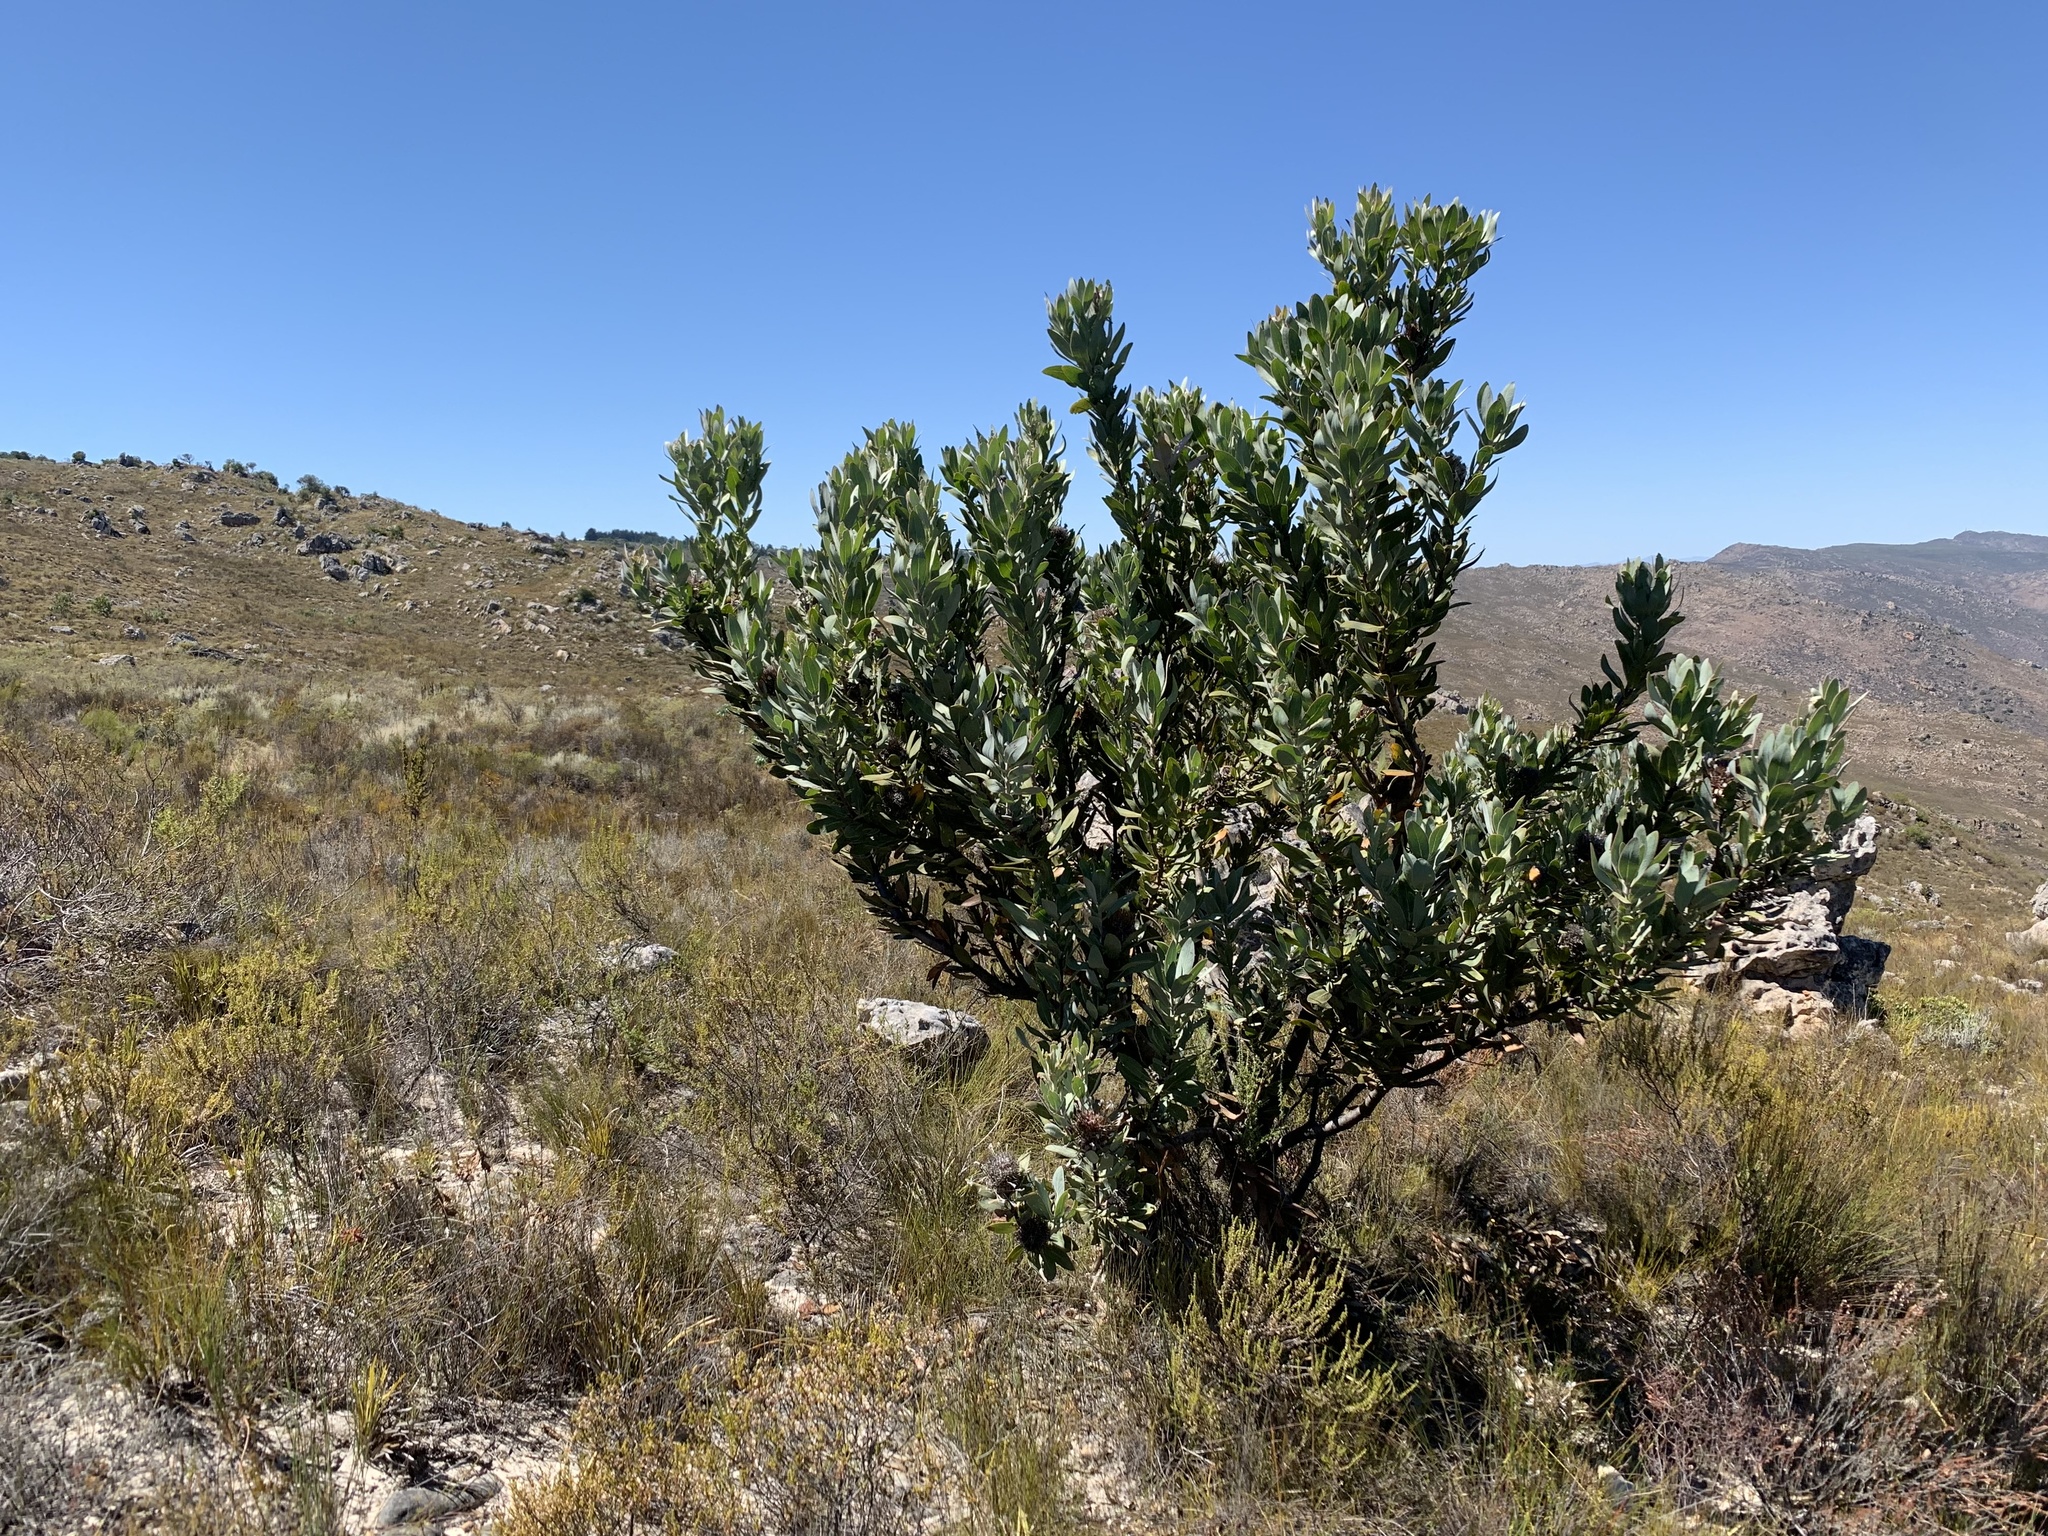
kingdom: Plantae
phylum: Tracheophyta
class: Magnoliopsida
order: Proteales
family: Proteaceae
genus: Protea
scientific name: Protea laurifolia
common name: Grey-leaf sugarbsh
